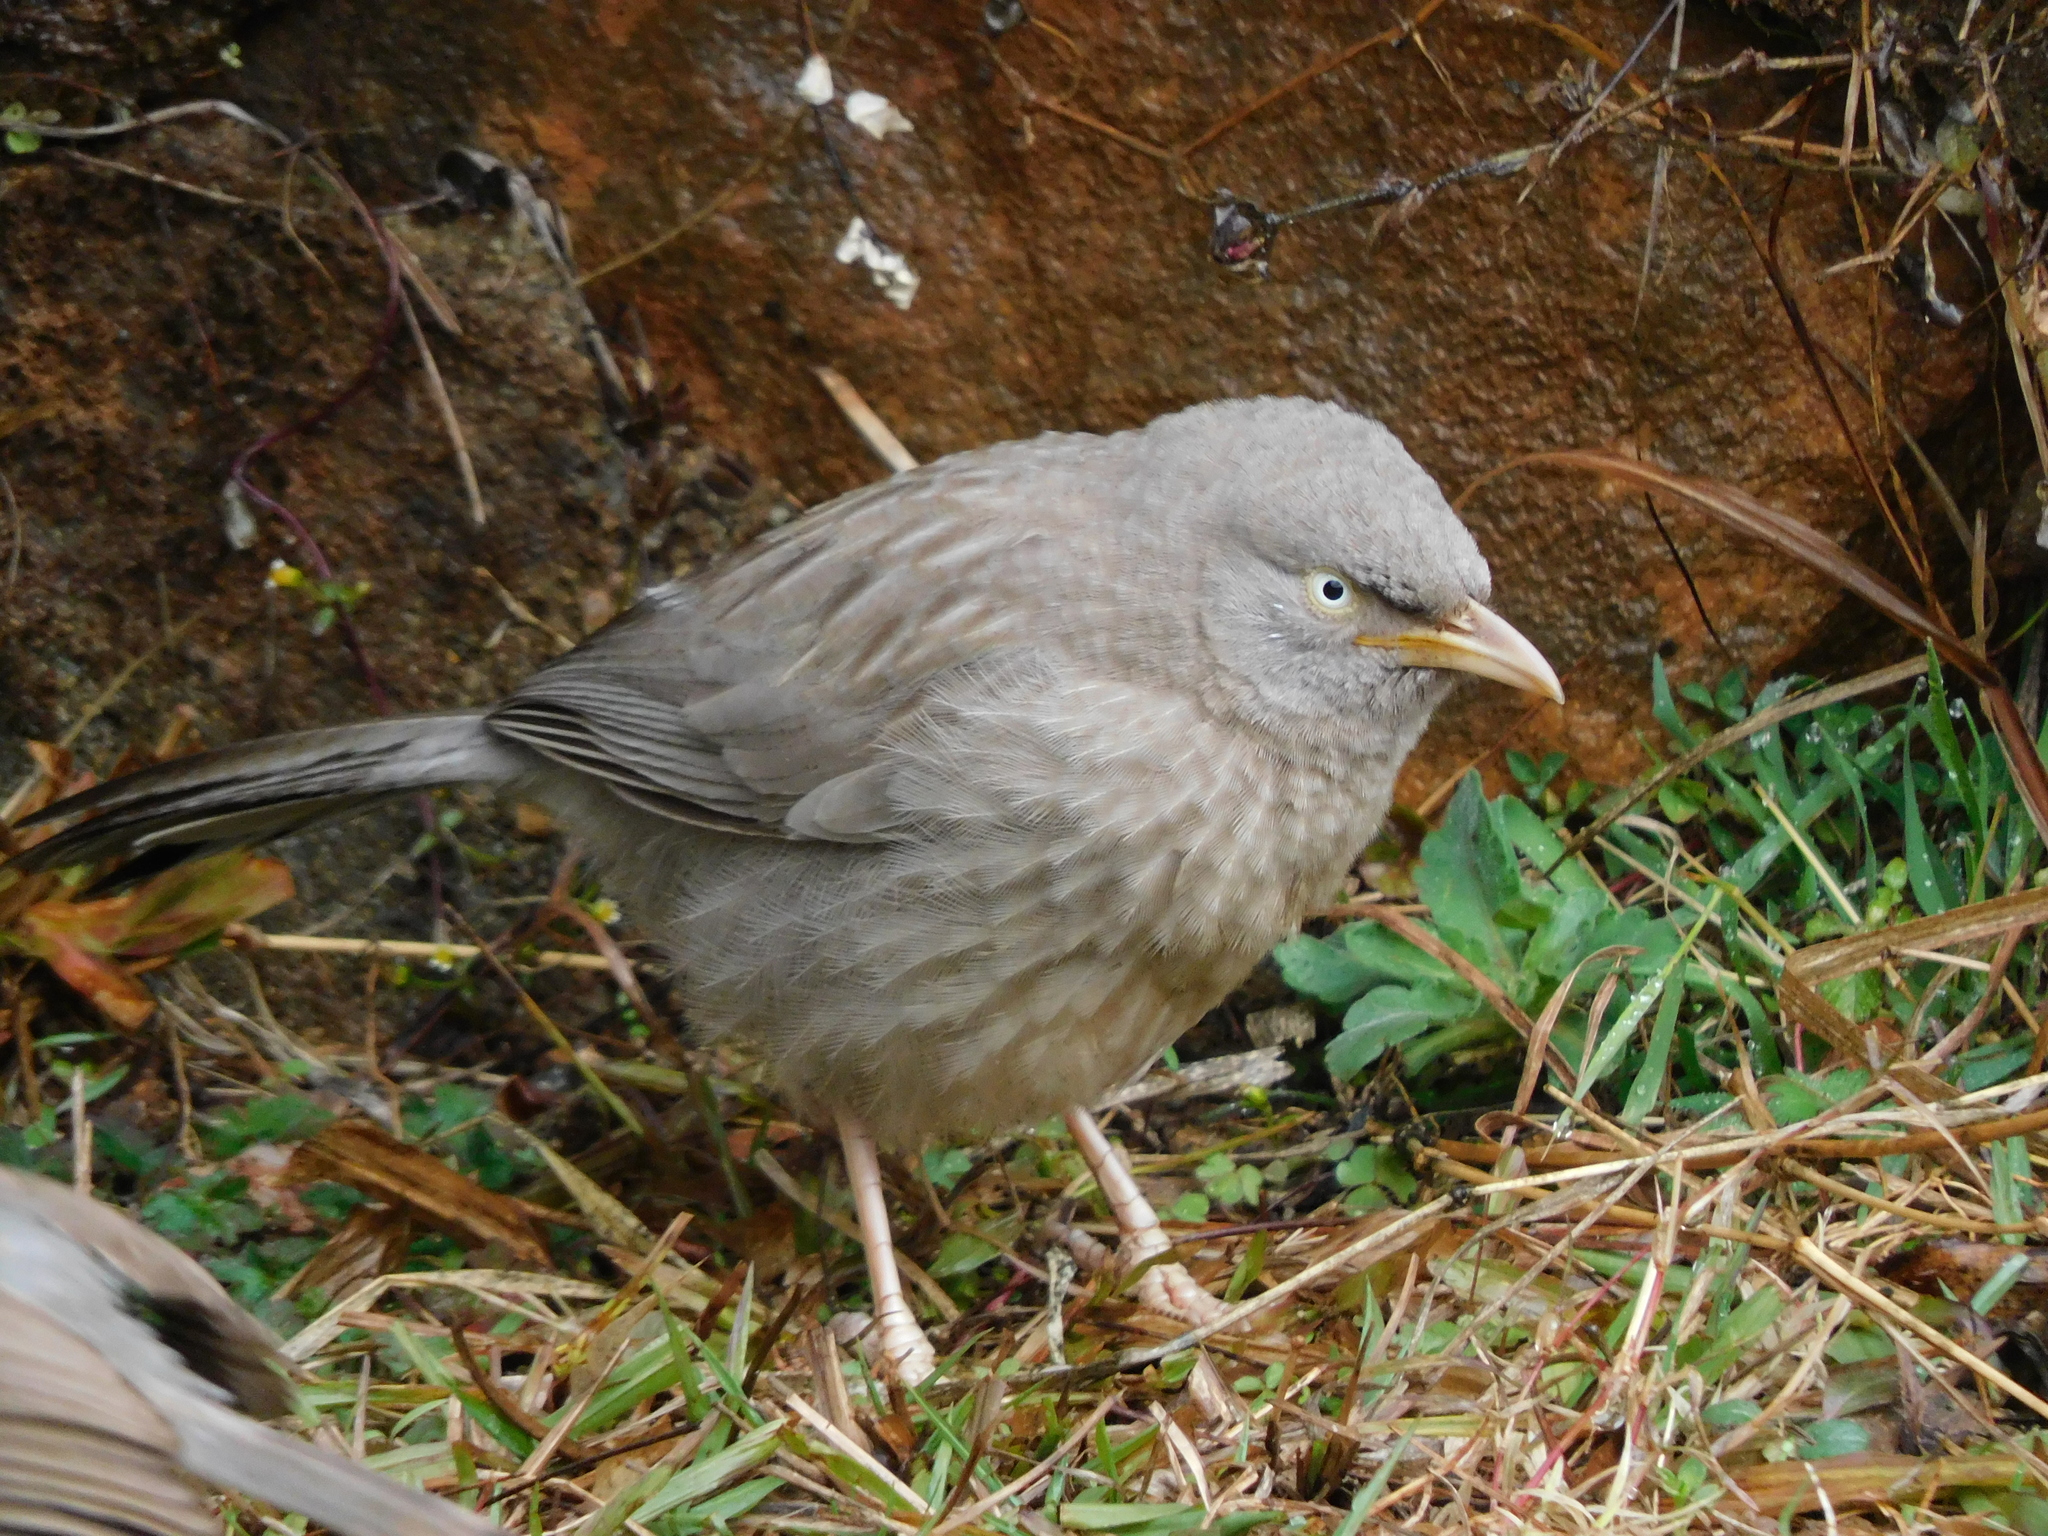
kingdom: Animalia
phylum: Chordata
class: Aves
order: Passeriformes
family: Leiothrichidae
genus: Turdoides
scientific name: Turdoides striata
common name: Jungle babbler
